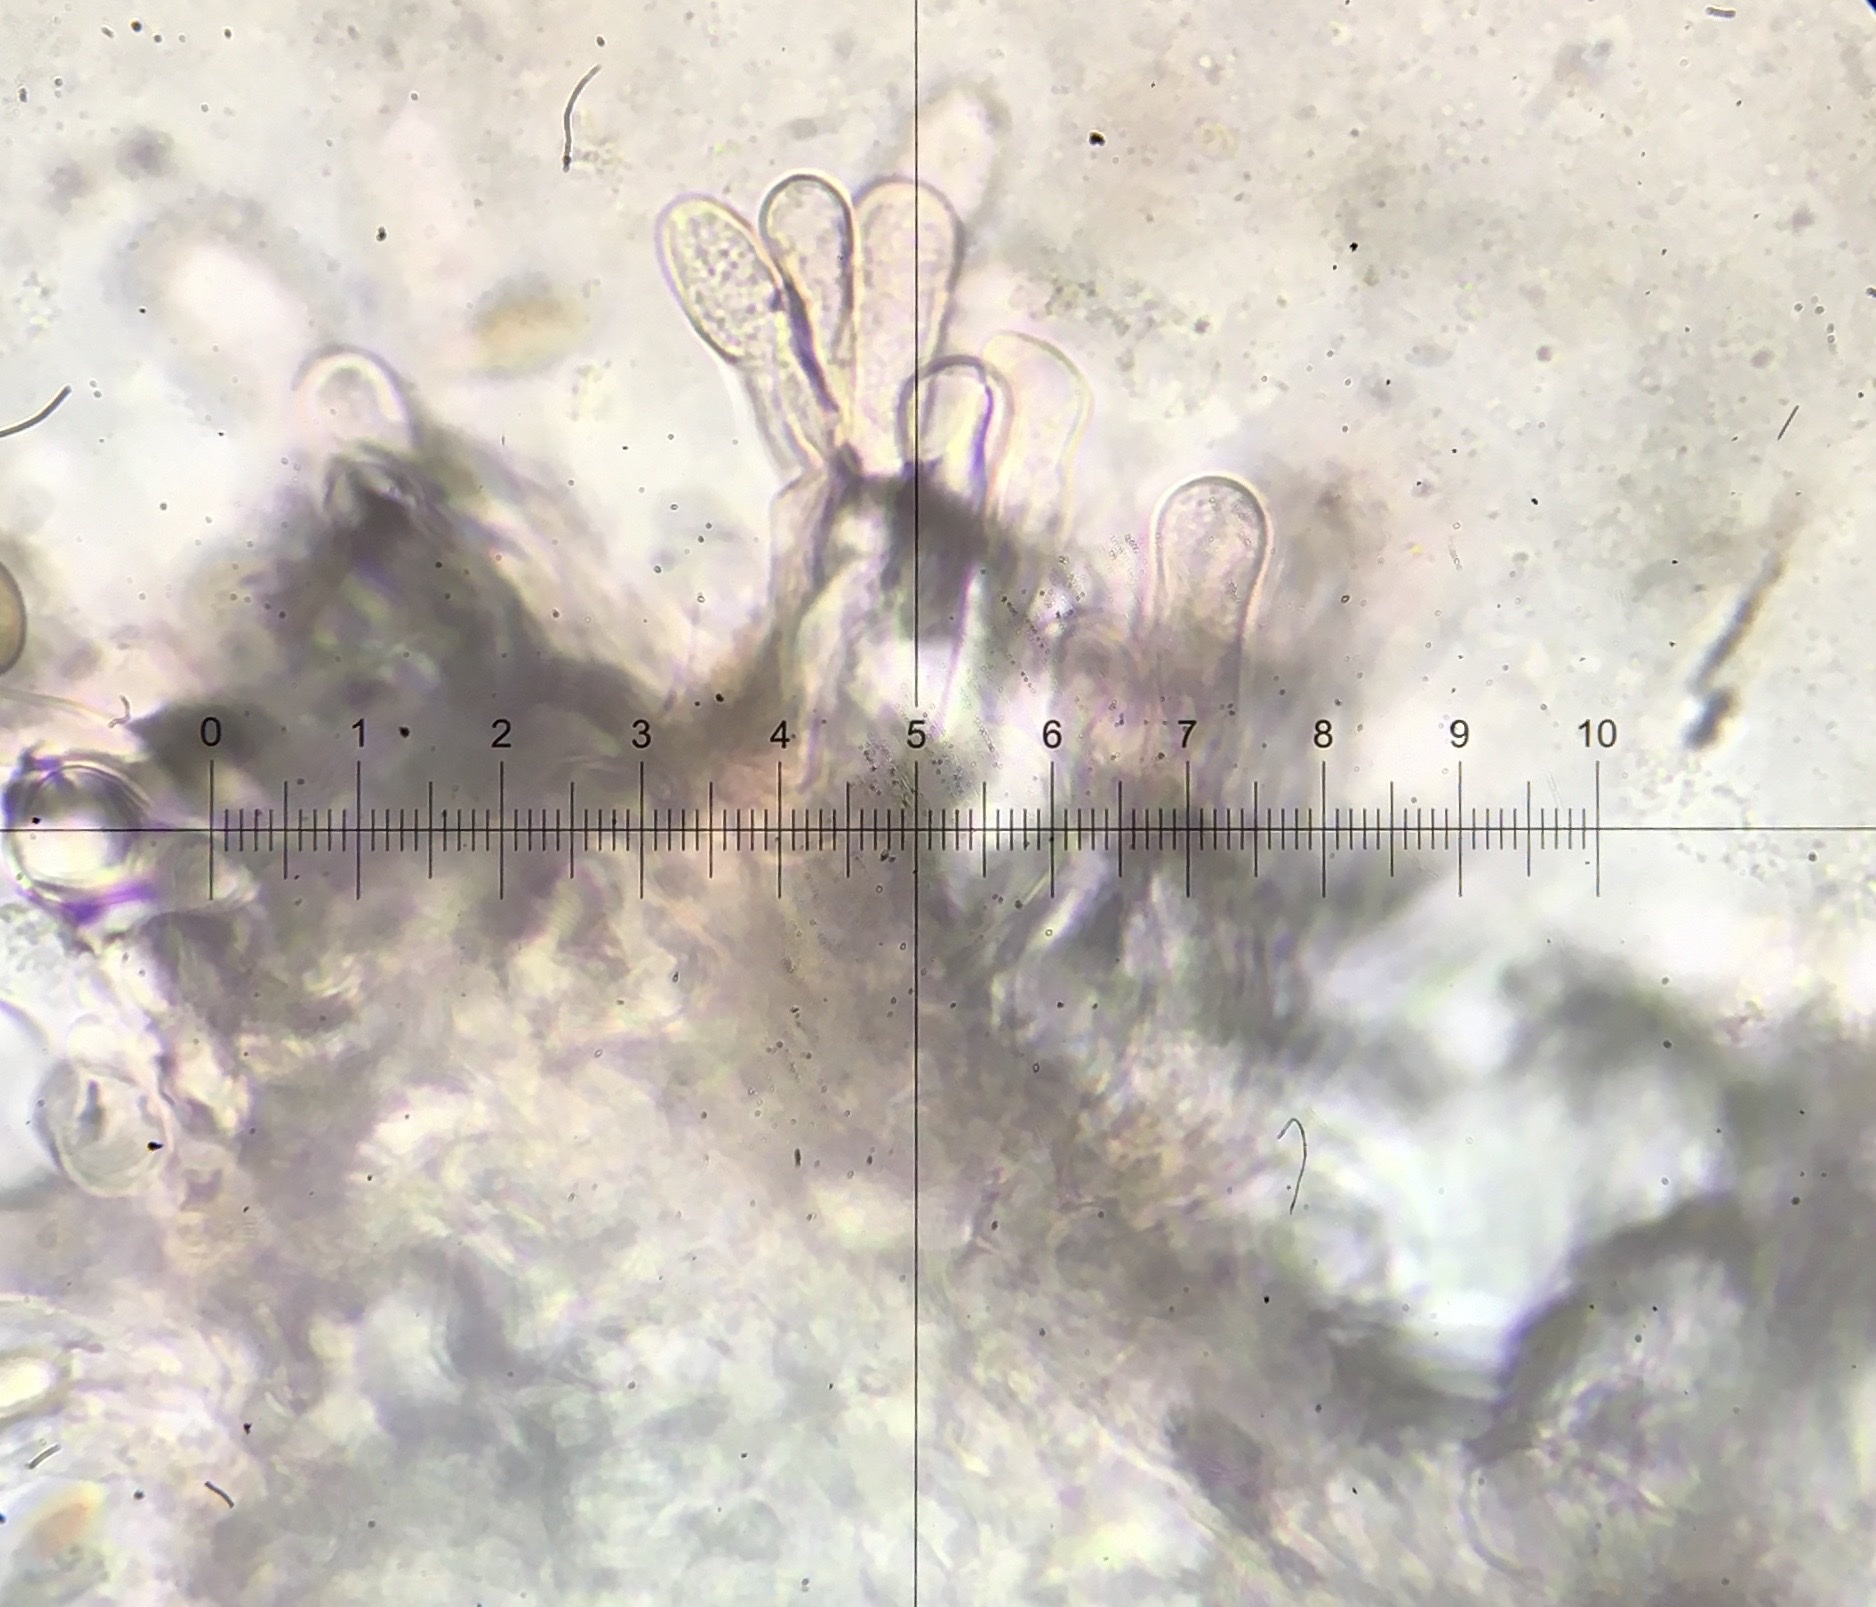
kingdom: Fungi
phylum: Basidiomycota
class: Agaricomycetes
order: Agaricales
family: Inocybaceae
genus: Mallocybe
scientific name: Mallocybe unicolor
